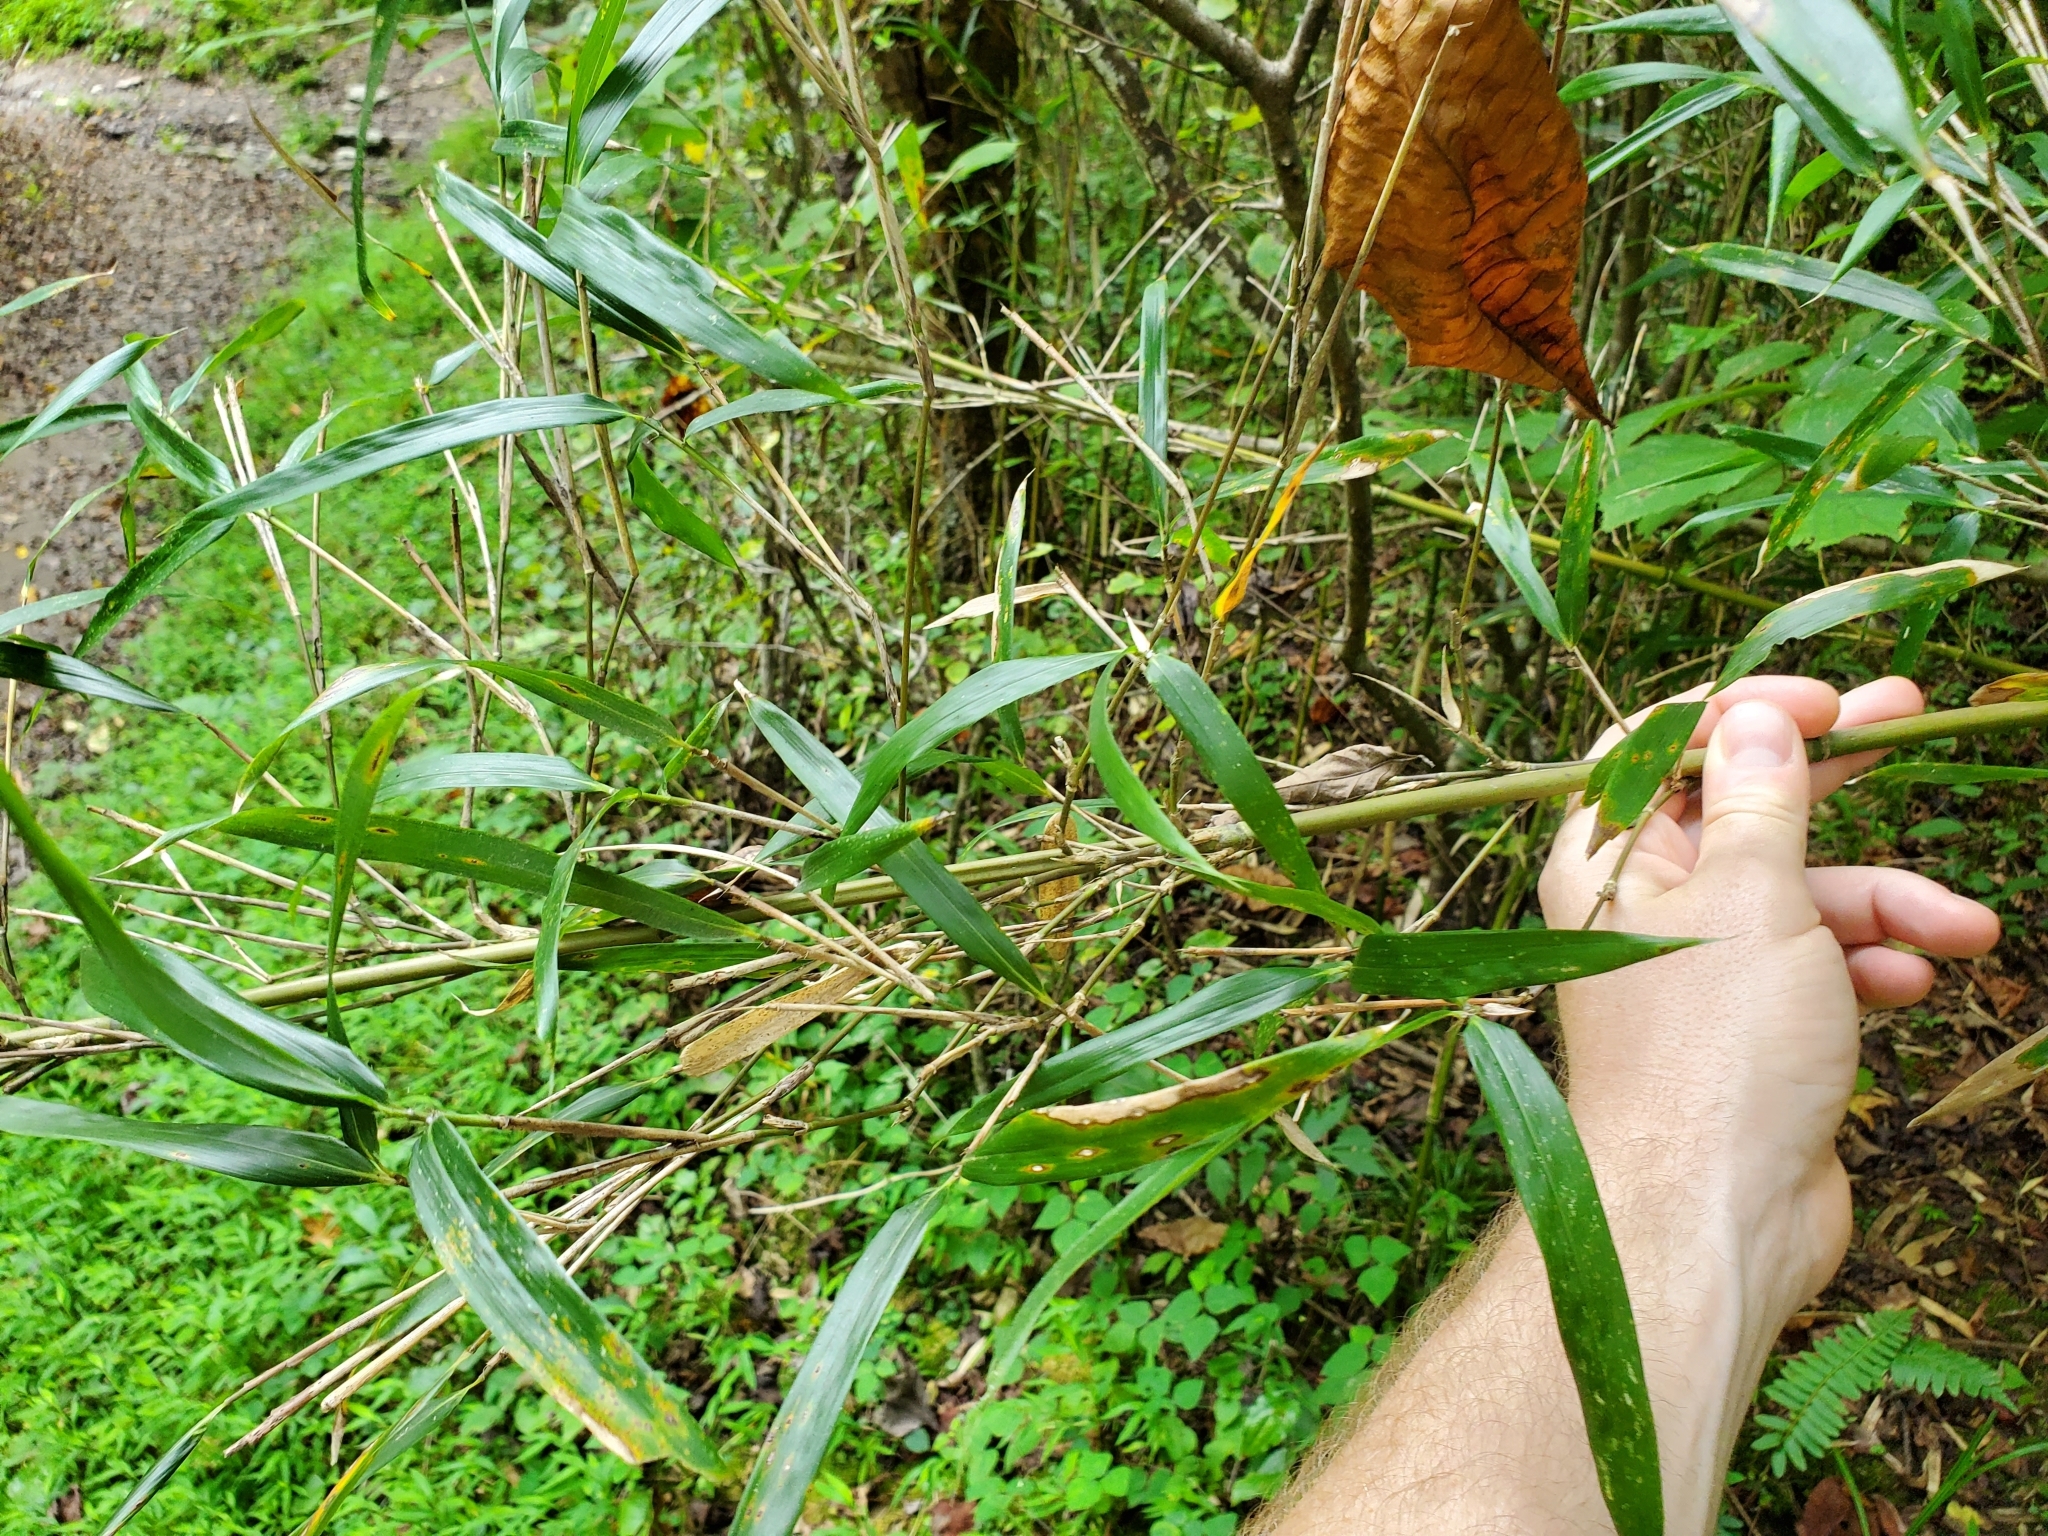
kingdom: Plantae
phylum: Tracheophyta
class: Liliopsida
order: Poales
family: Poaceae
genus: Arundinaria
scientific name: Arundinaria gigantea
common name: Giant cane
